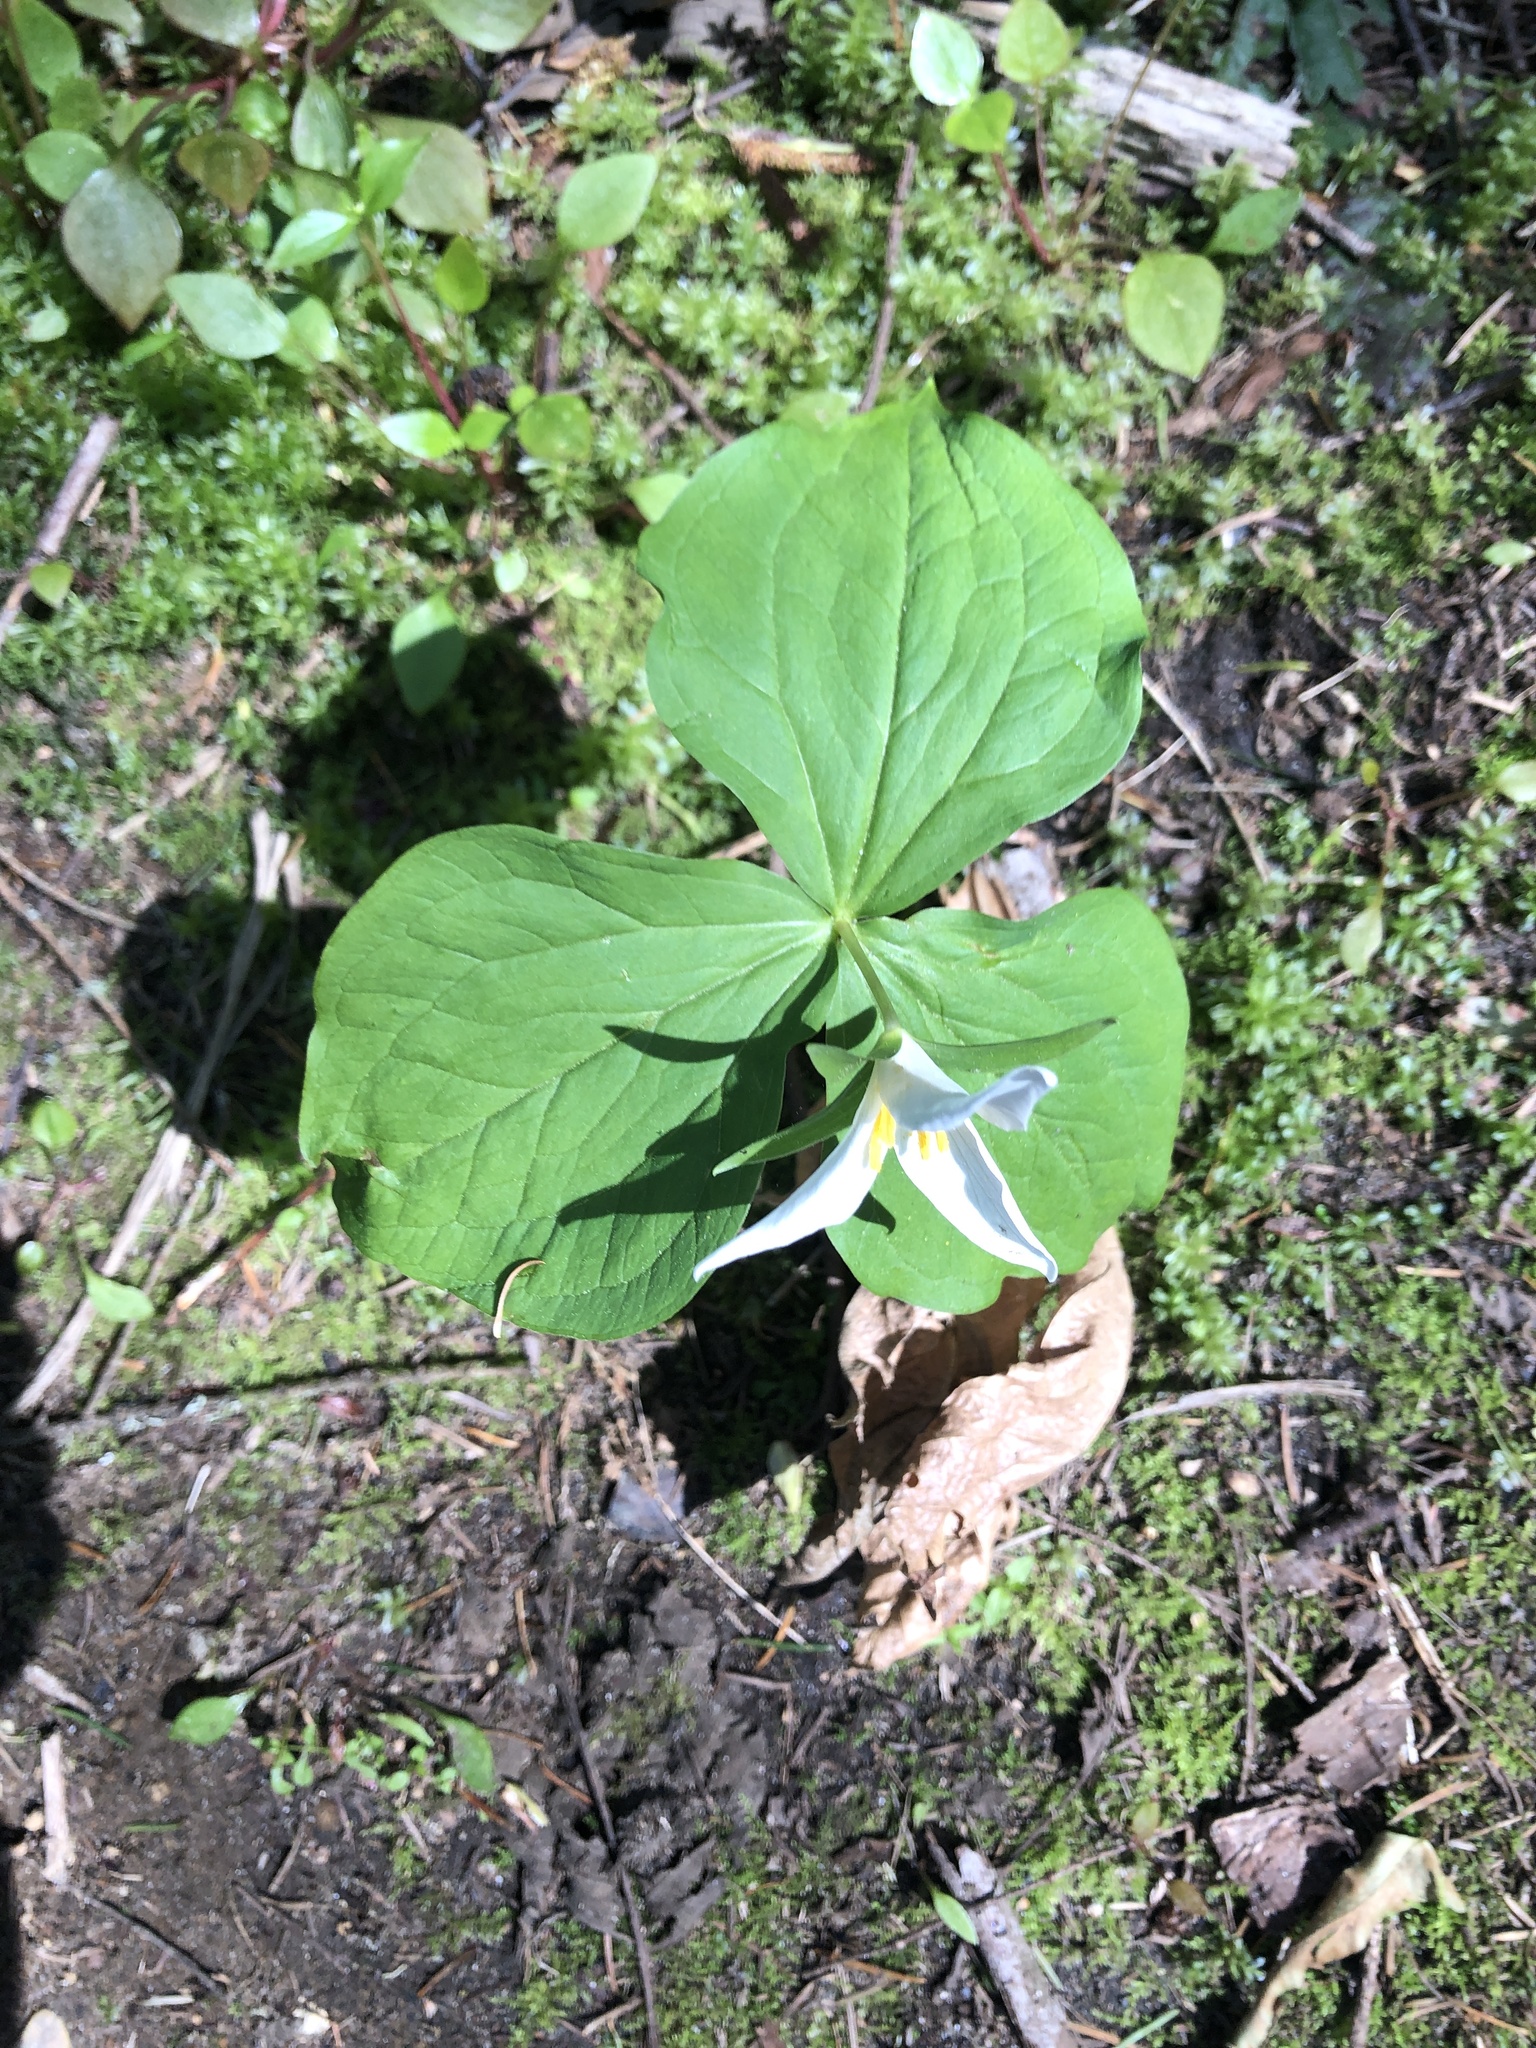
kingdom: Plantae
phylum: Tracheophyta
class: Liliopsida
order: Liliales
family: Melanthiaceae
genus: Trillium
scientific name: Trillium ovatum
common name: Pacific trillium
